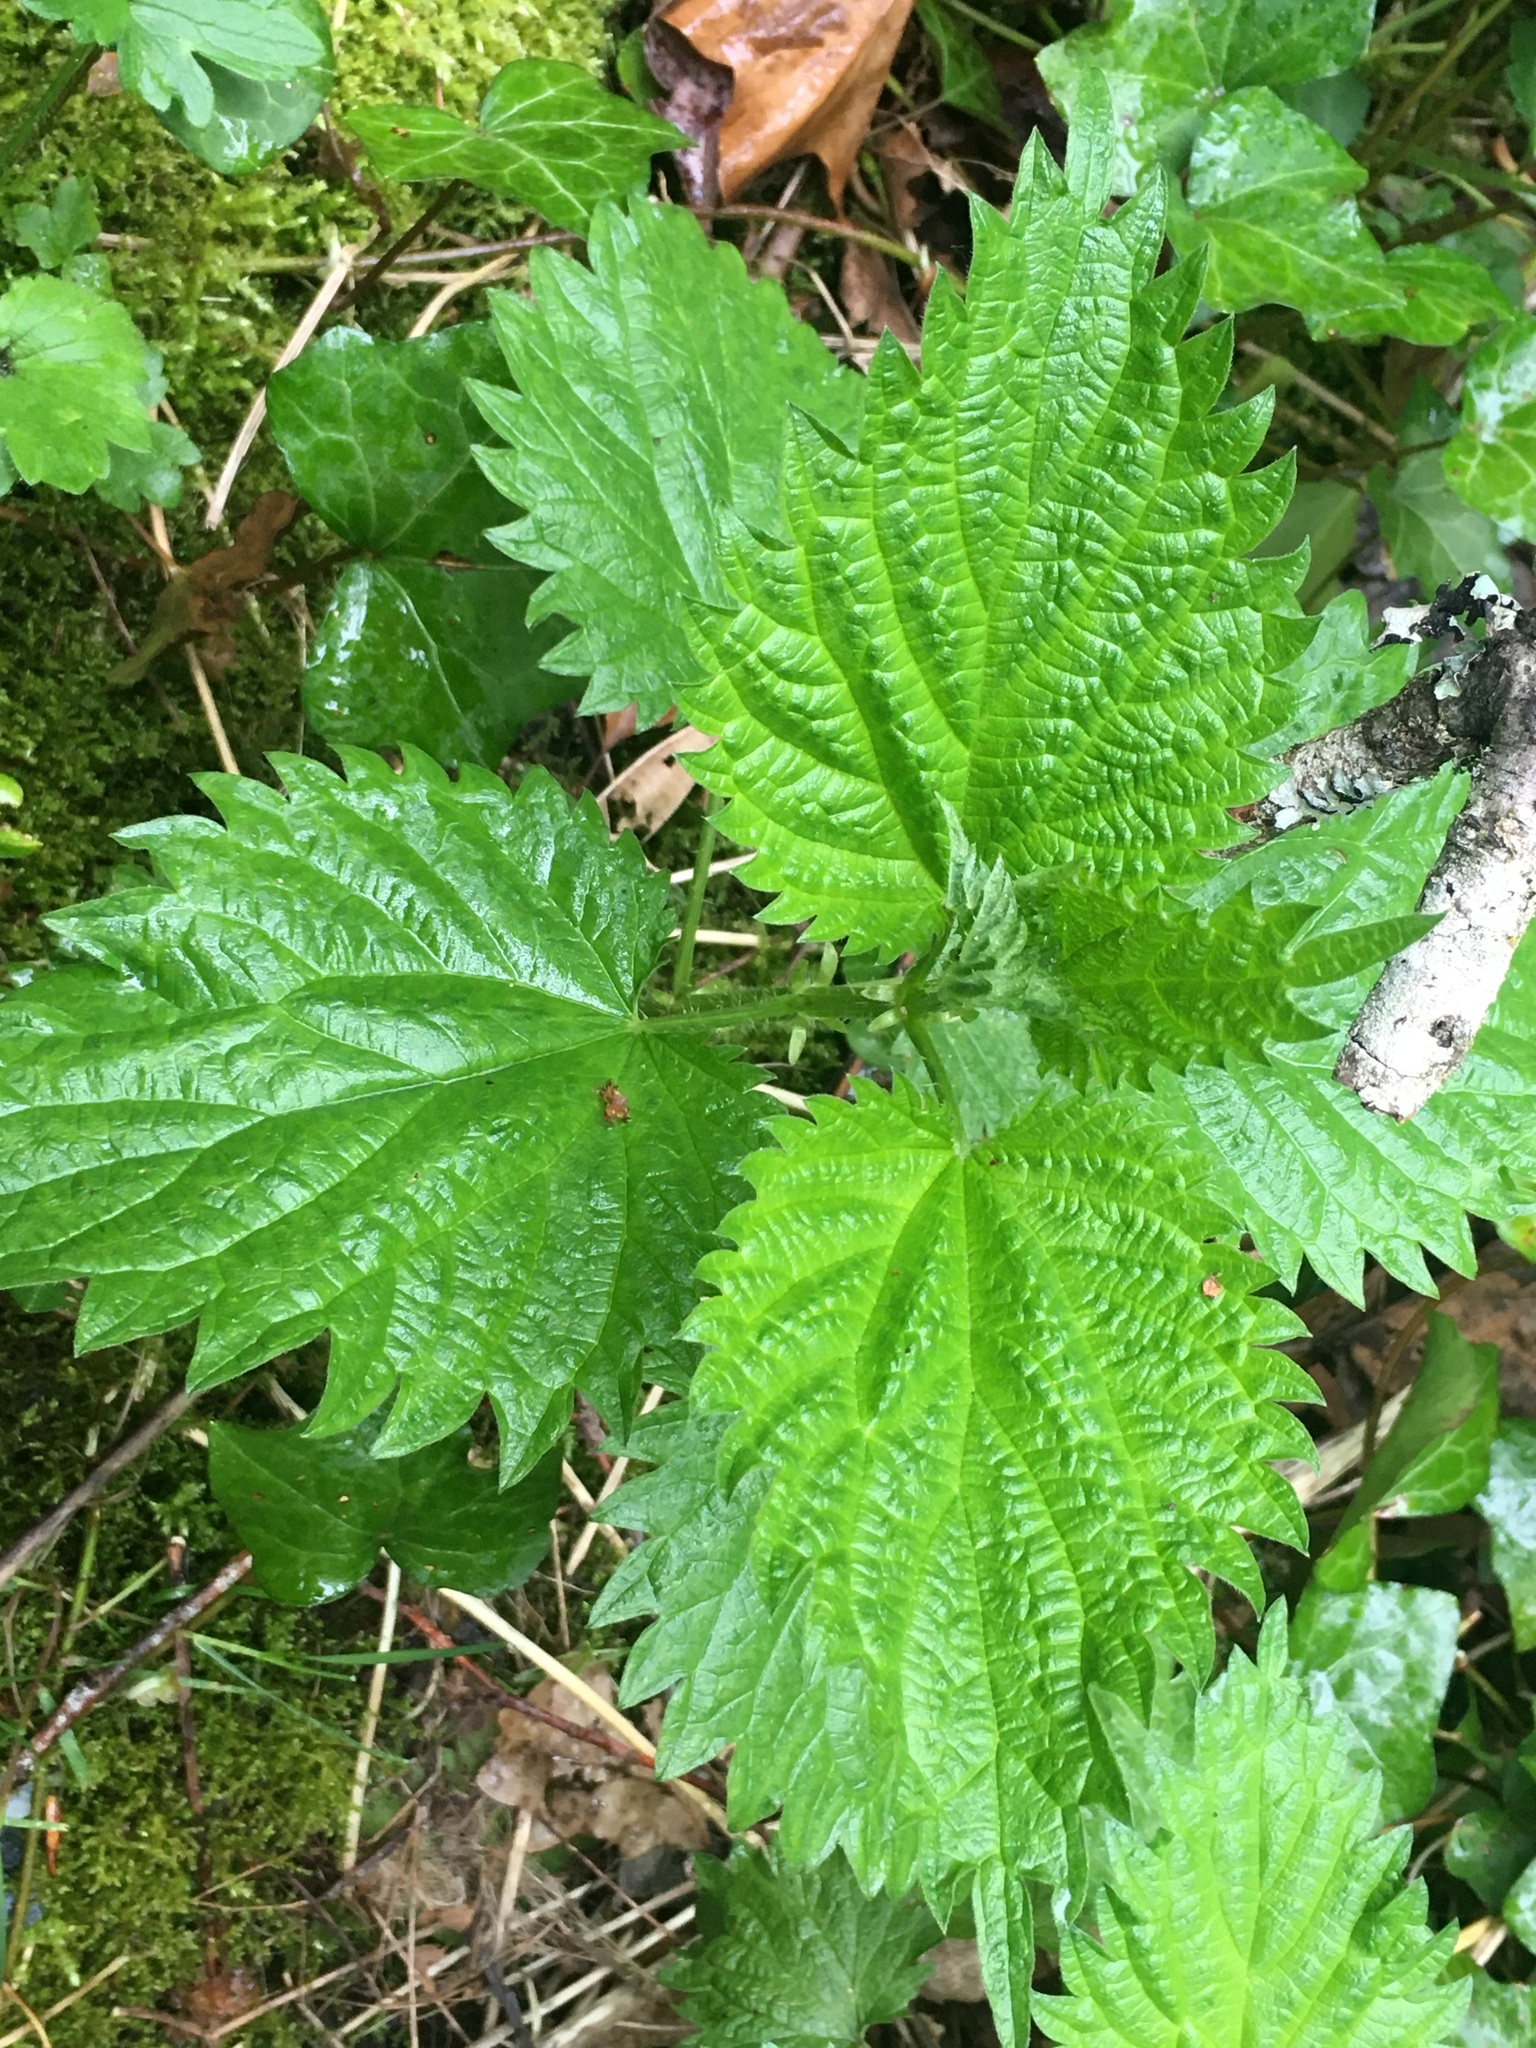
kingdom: Plantae
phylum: Tracheophyta
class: Magnoliopsida
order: Rosales
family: Urticaceae
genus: Urtica
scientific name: Urtica dioica
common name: Common nettle
